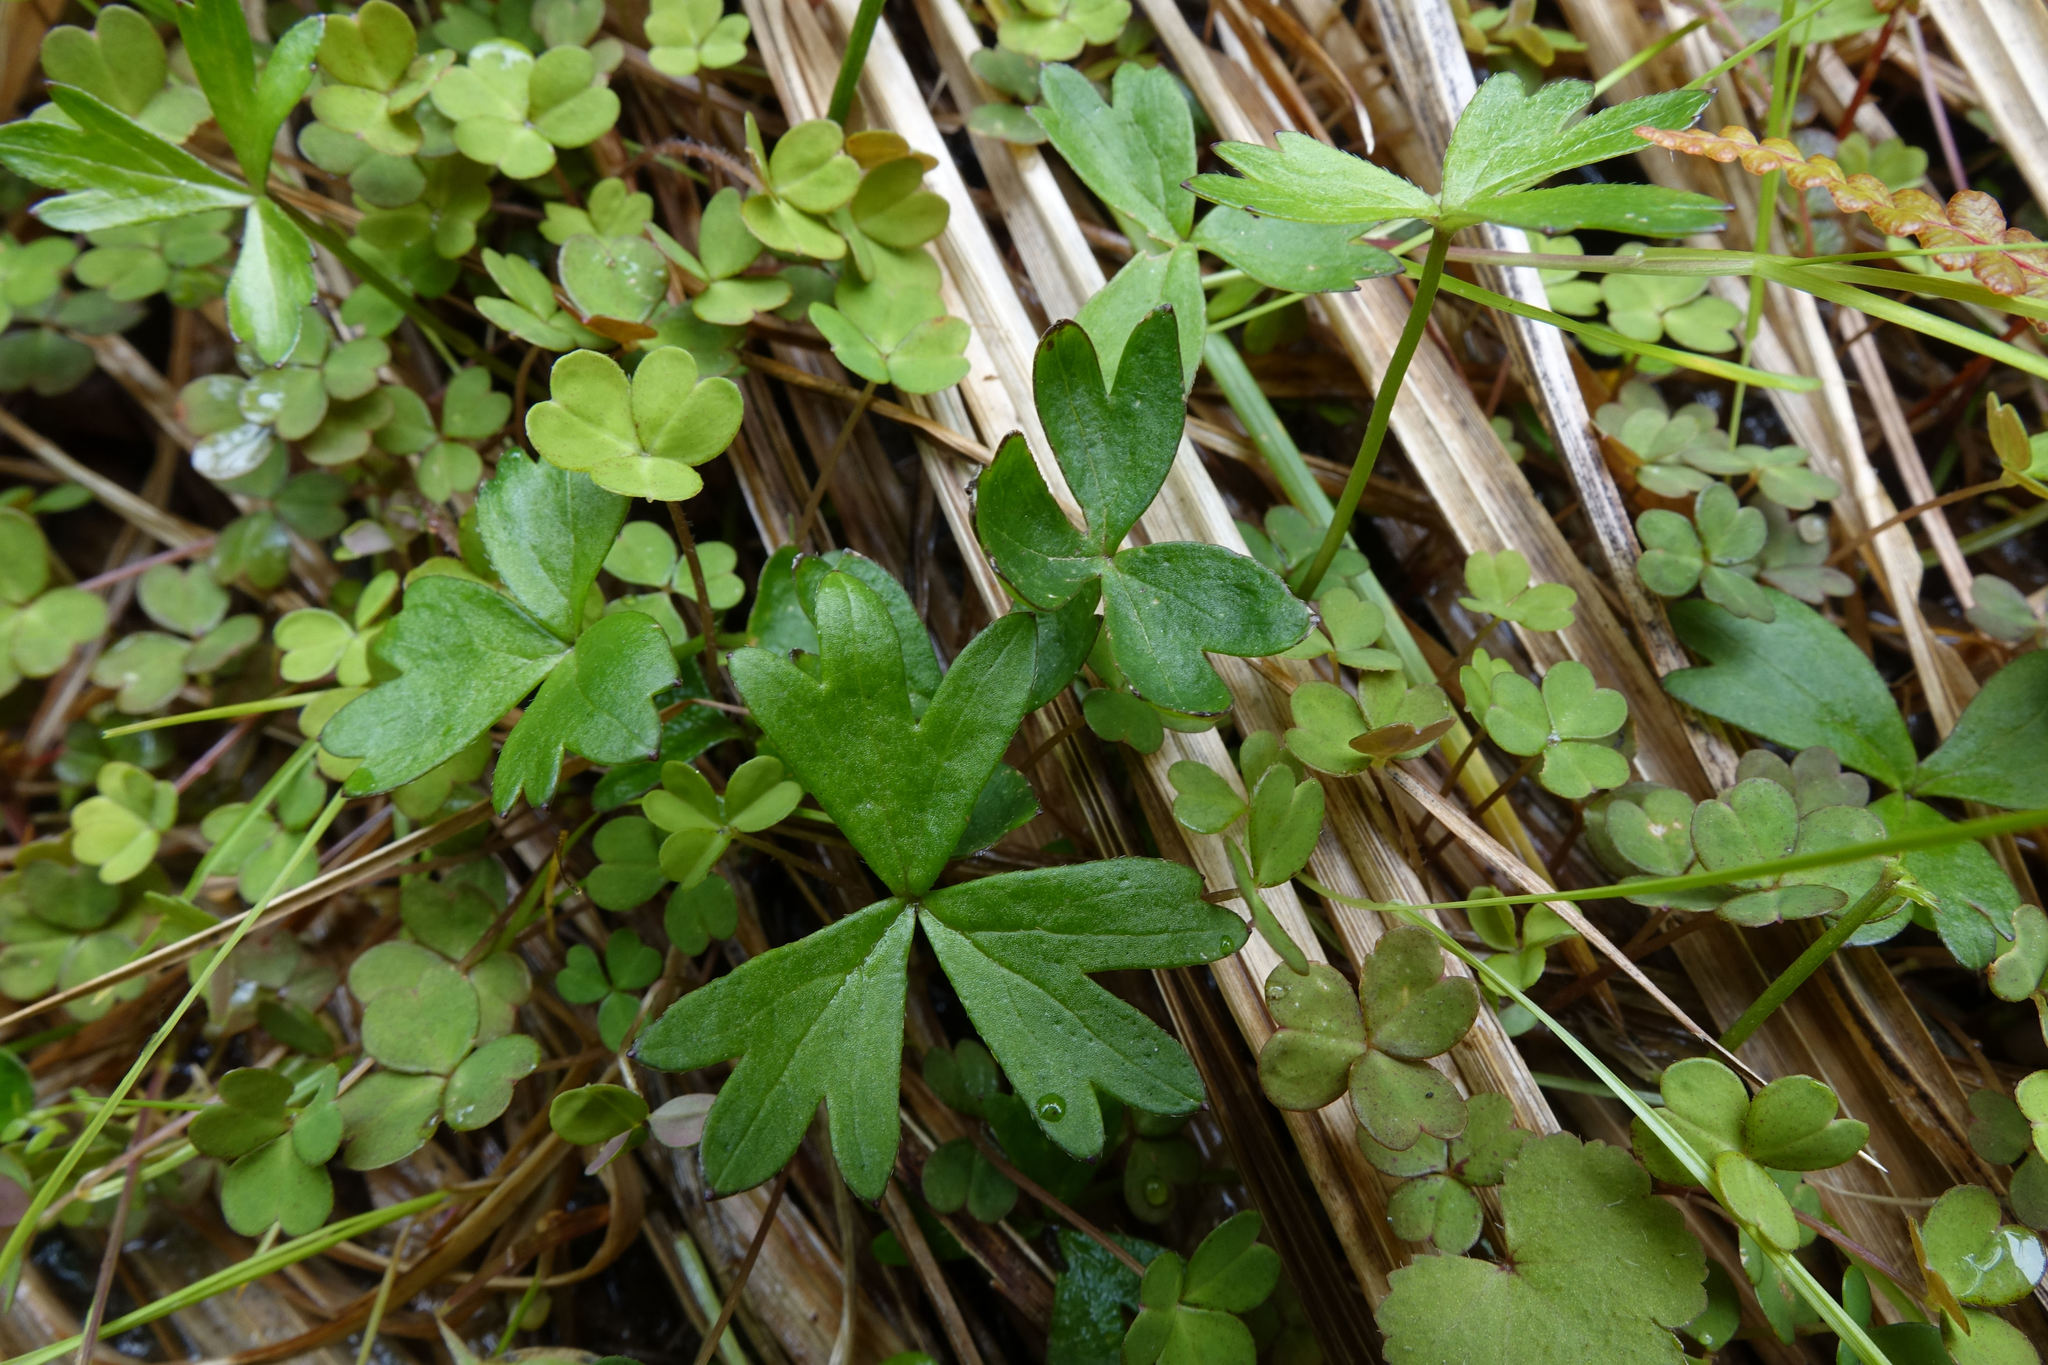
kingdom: Plantae
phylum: Tracheophyta
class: Magnoliopsida
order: Ranunculales
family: Ranunculaceae
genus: Anemonastrum
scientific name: Anemonastrum tenuicaule
